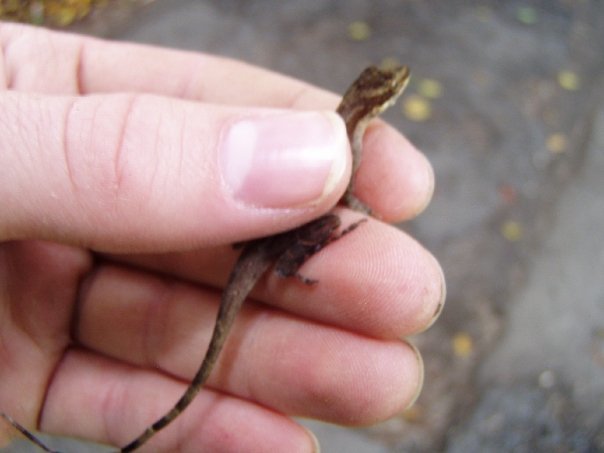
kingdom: Animalia
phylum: Chordata
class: Squamata
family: Dactyloidae
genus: Anolis
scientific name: Anolis limifrons
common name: Border anole
